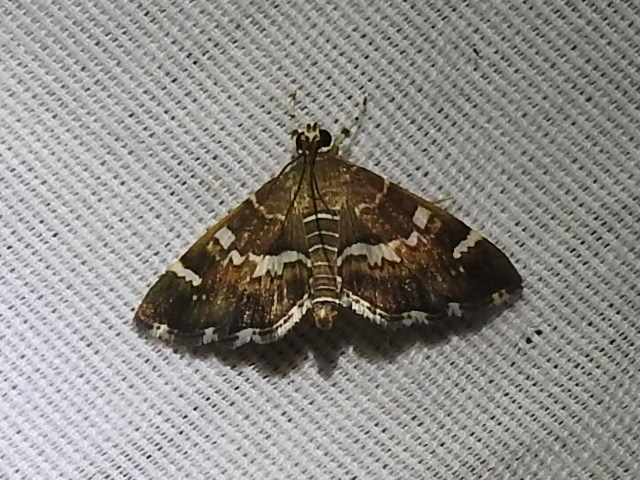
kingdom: Animalia
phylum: Arthropoda
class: Insecta
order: Lepidoptera
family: Crambidae
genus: Hymenia
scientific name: Hymenia perspectalis
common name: Spotted beet webworm
